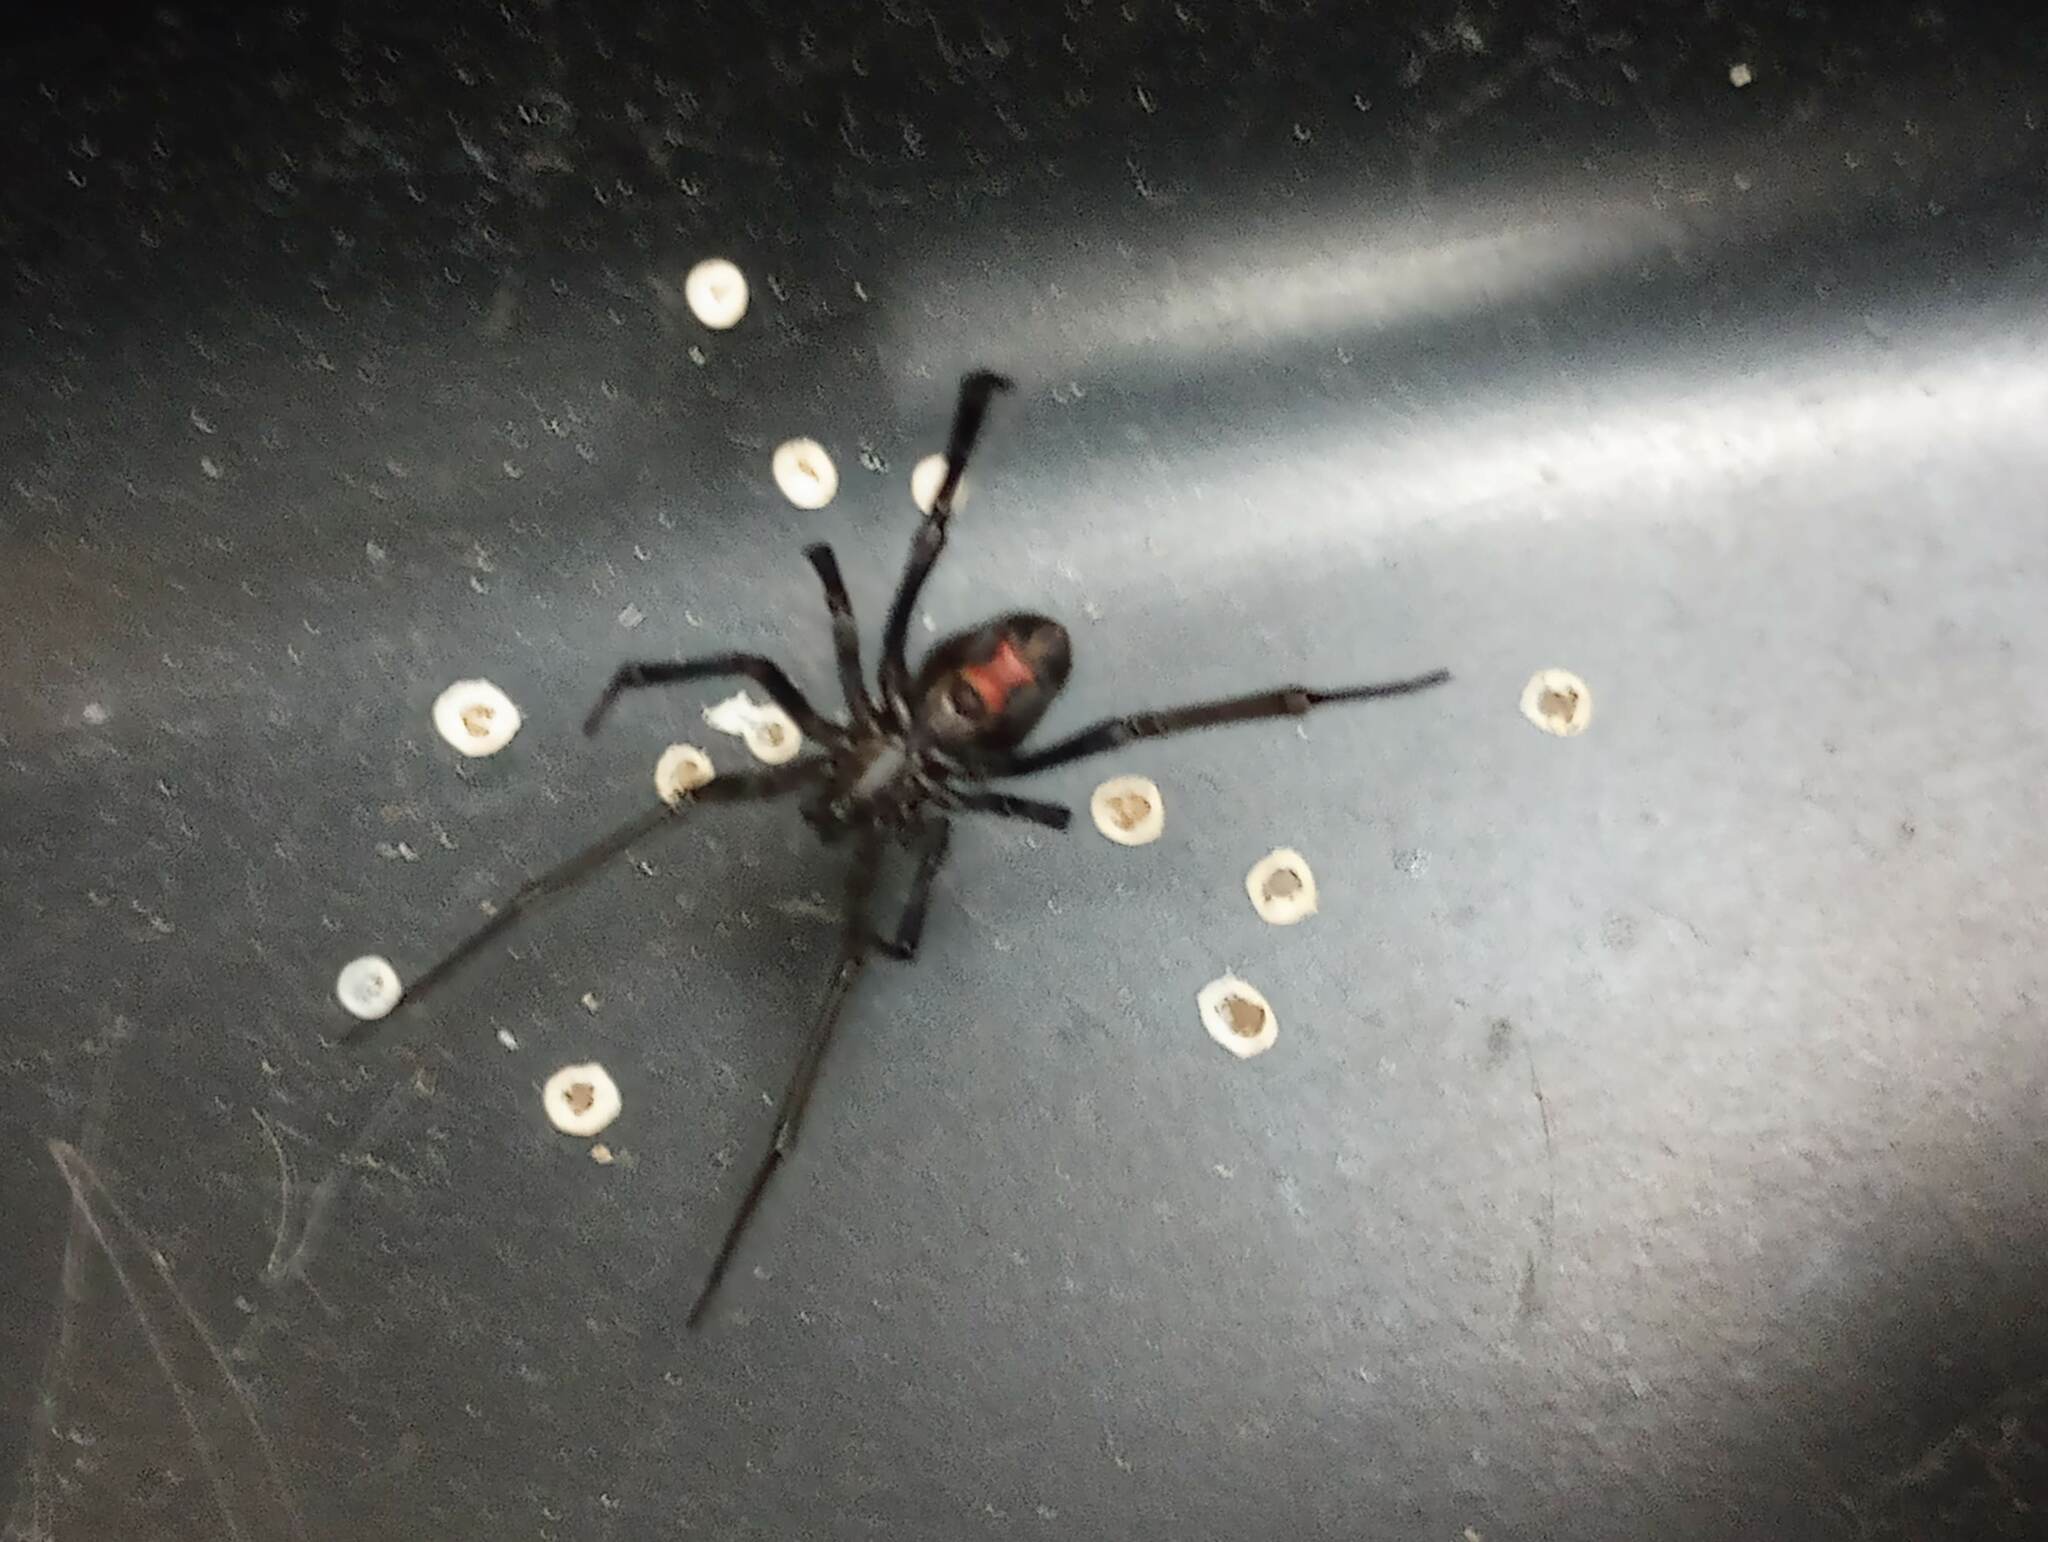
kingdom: Animalia
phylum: Arthropoda
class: Arachnida
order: Araneae
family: Theridiidae
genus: Latrodectus
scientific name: Latrodectus hesperus
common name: Western black widow
